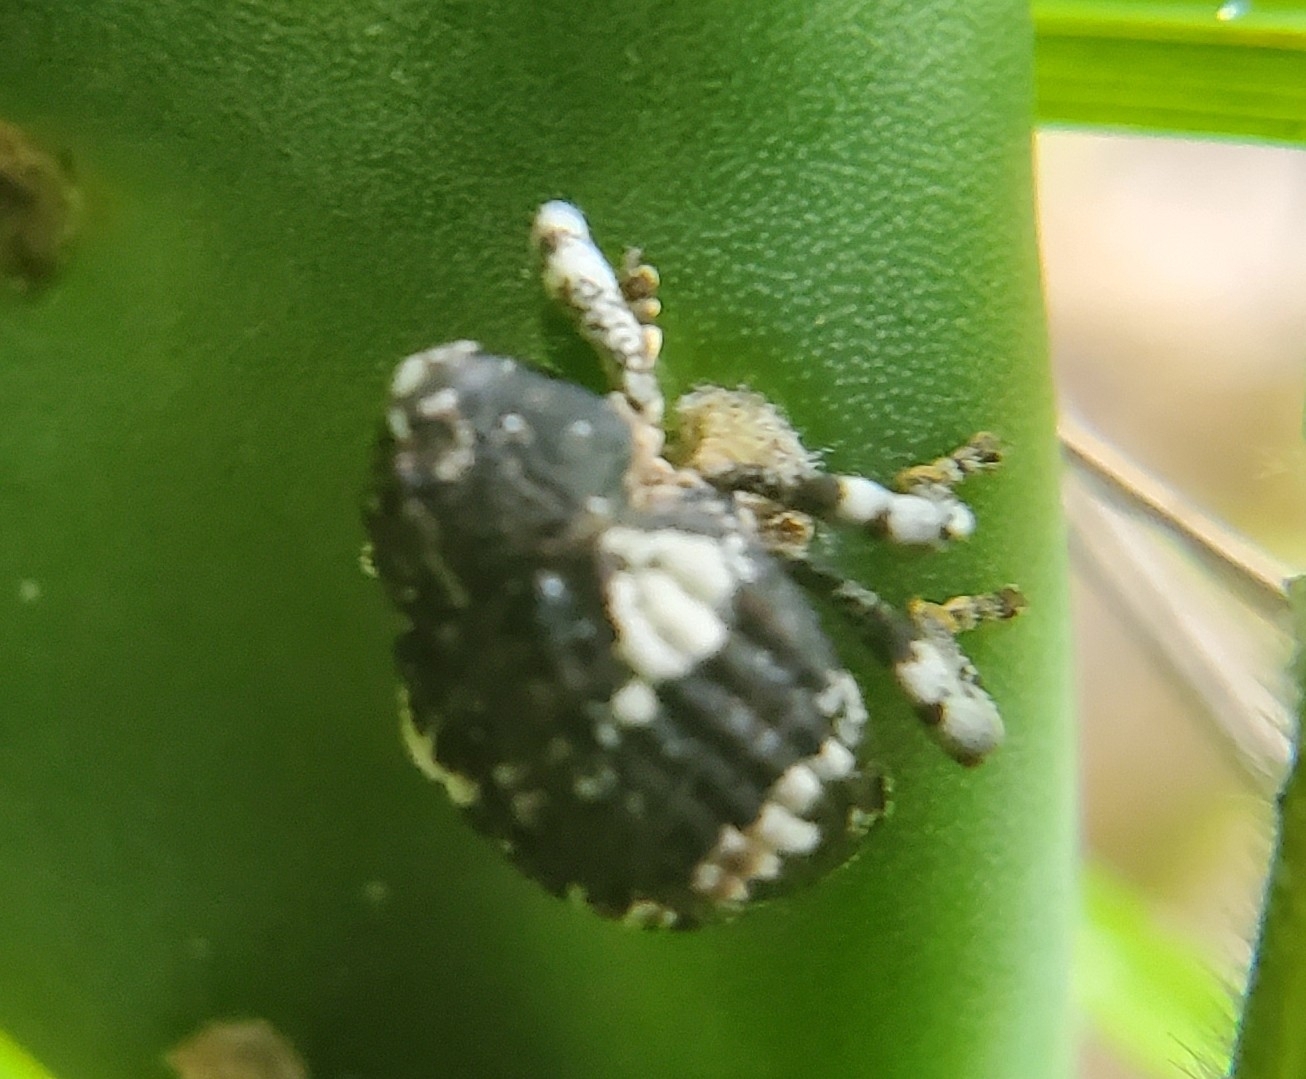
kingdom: Animalia
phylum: Arthropoda
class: Insecta
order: Coleoptera
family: Curculionidae
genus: Gerstaeckeria
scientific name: Gerstaeckeria hubbardi
